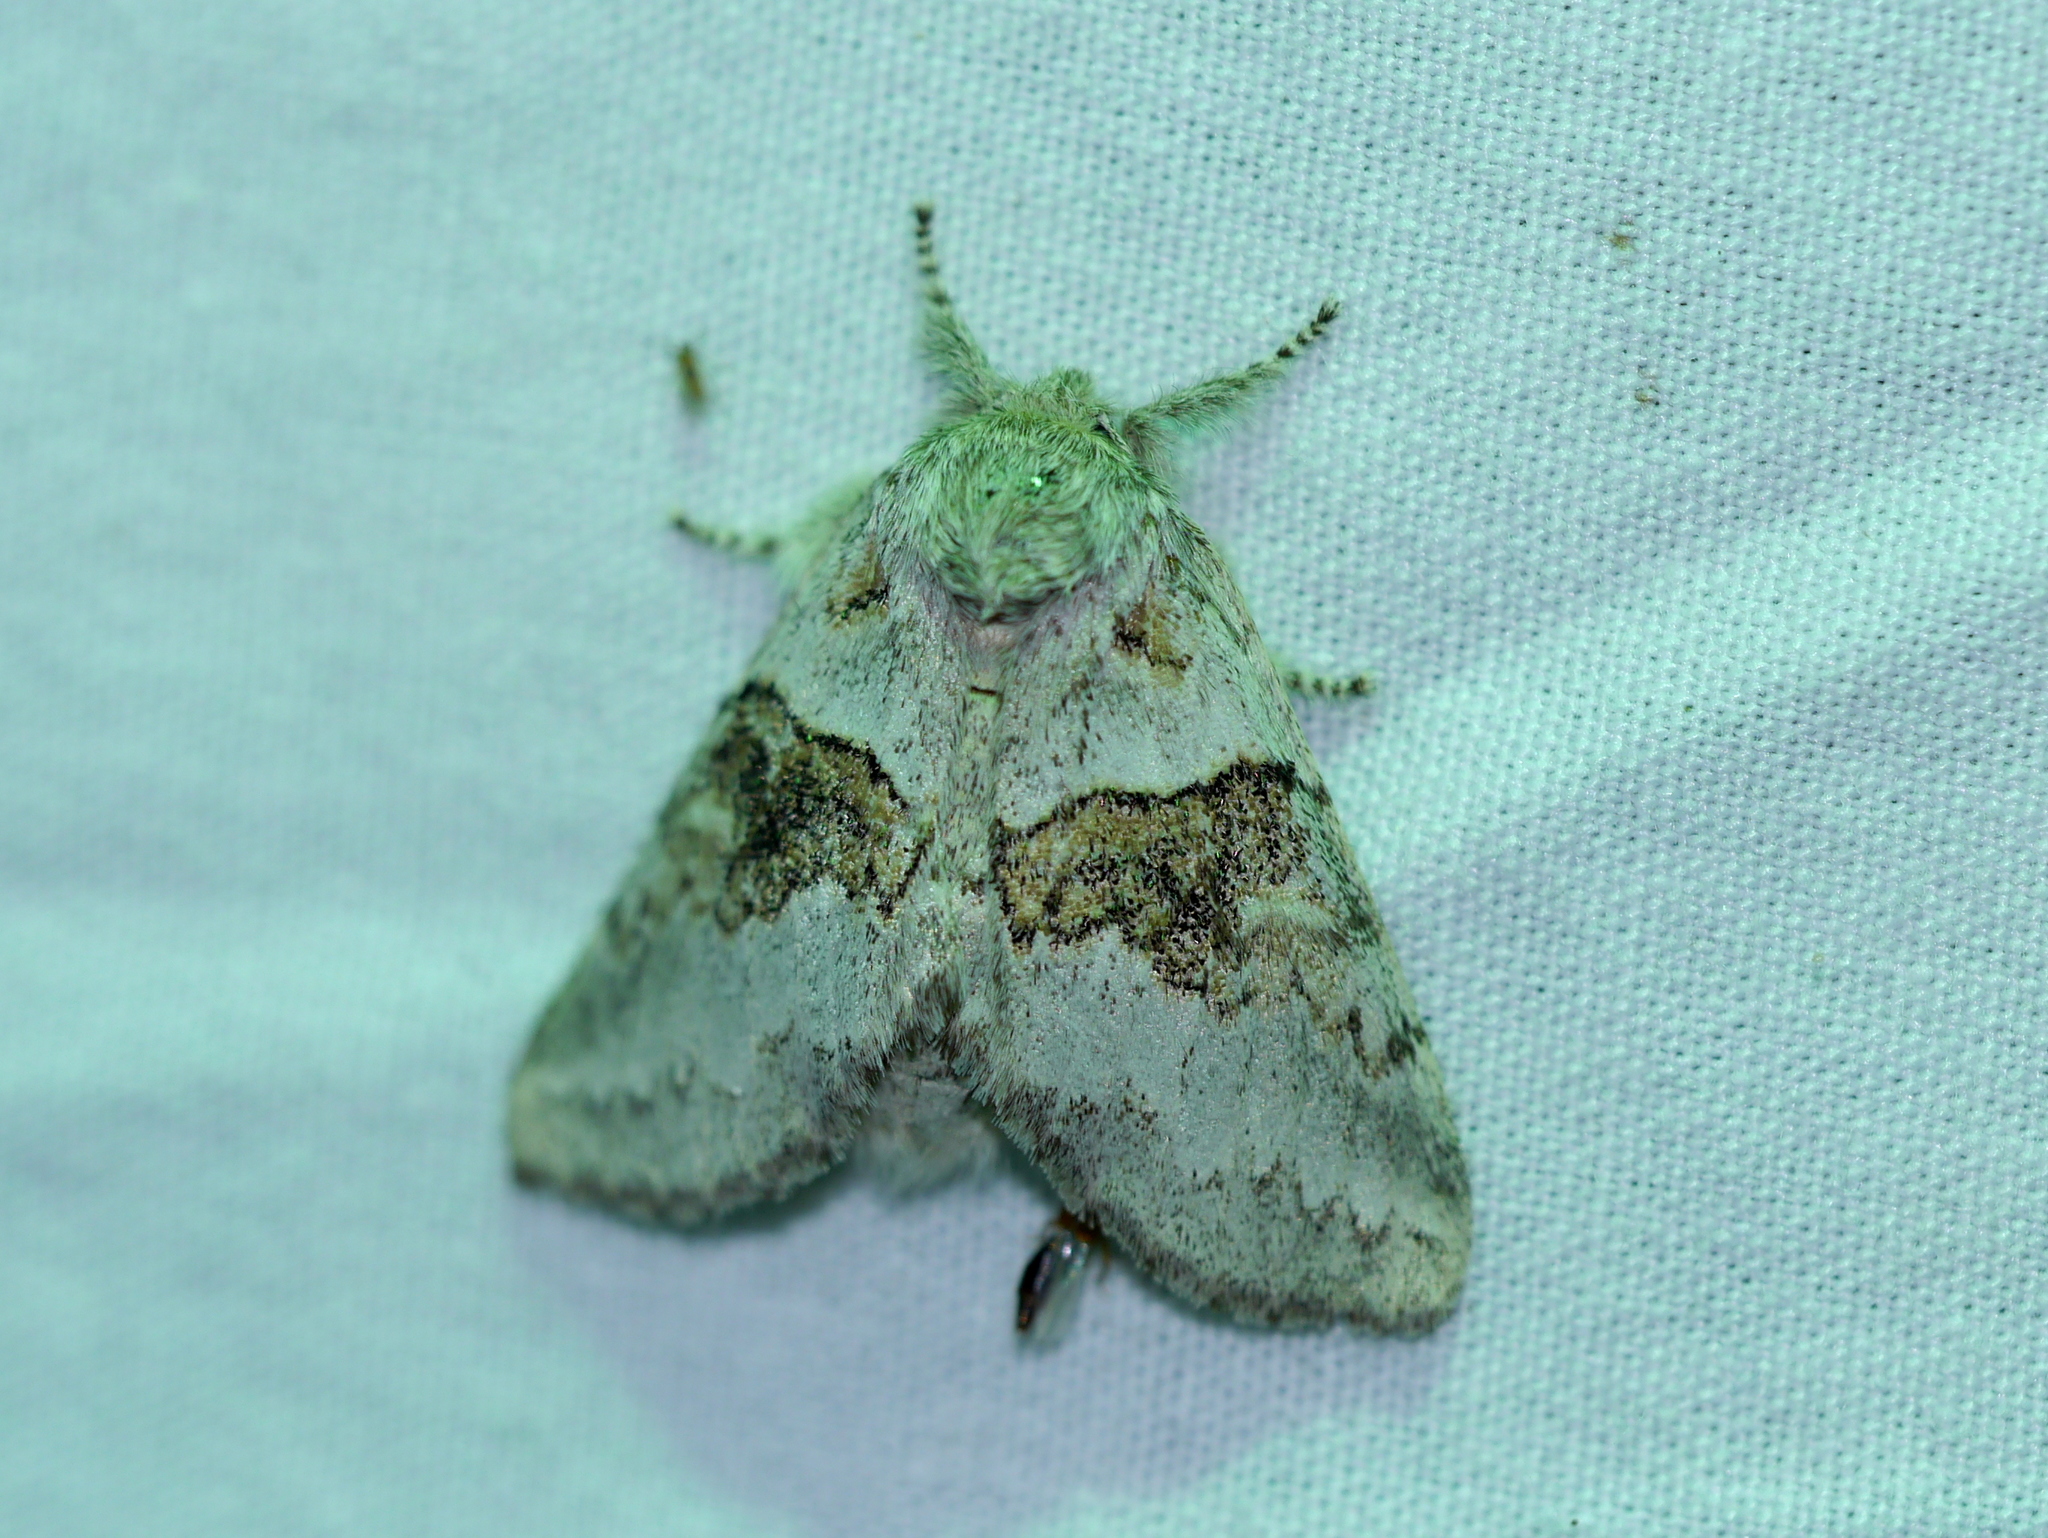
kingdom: Animalia
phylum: Arthropoda
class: Insecta
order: Lepidoptera
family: Notodontidae
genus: Gluphisia
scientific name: Gluphisia septentrionis
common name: Common gluphisia
